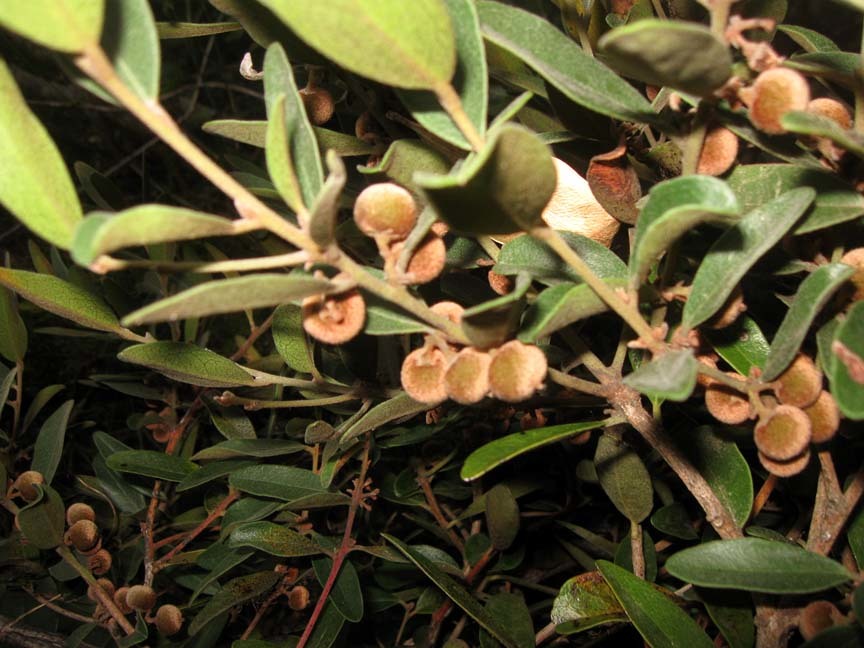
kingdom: Plantae
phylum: Tracheophyta
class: Magnoliopsida
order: Ericales
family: Ebenaceae
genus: Euclea
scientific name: Euclea polyandra
